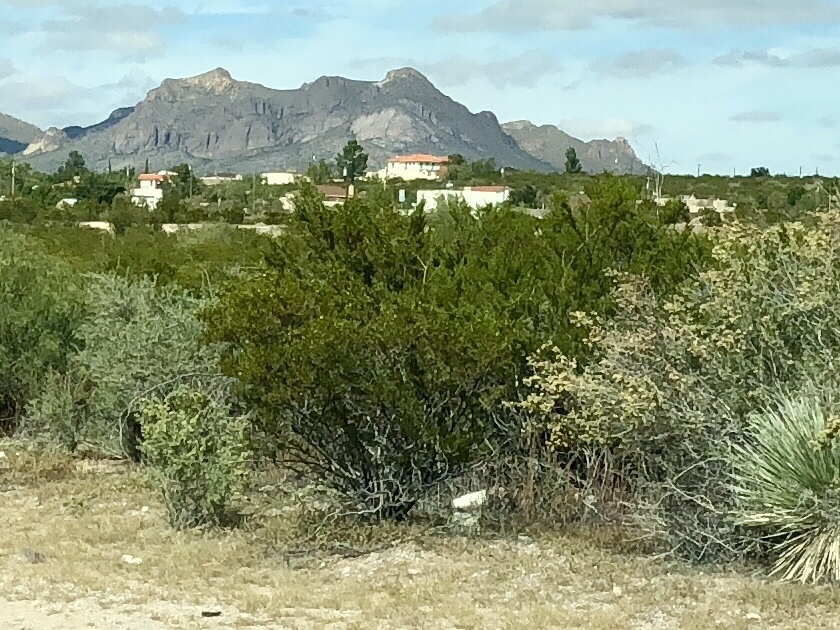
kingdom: Plantae
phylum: Tracheophyta
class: Magnoliopsida
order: Zygophyllales
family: Zygophyllaceae
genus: Larrea
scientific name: Larrea tridentata
